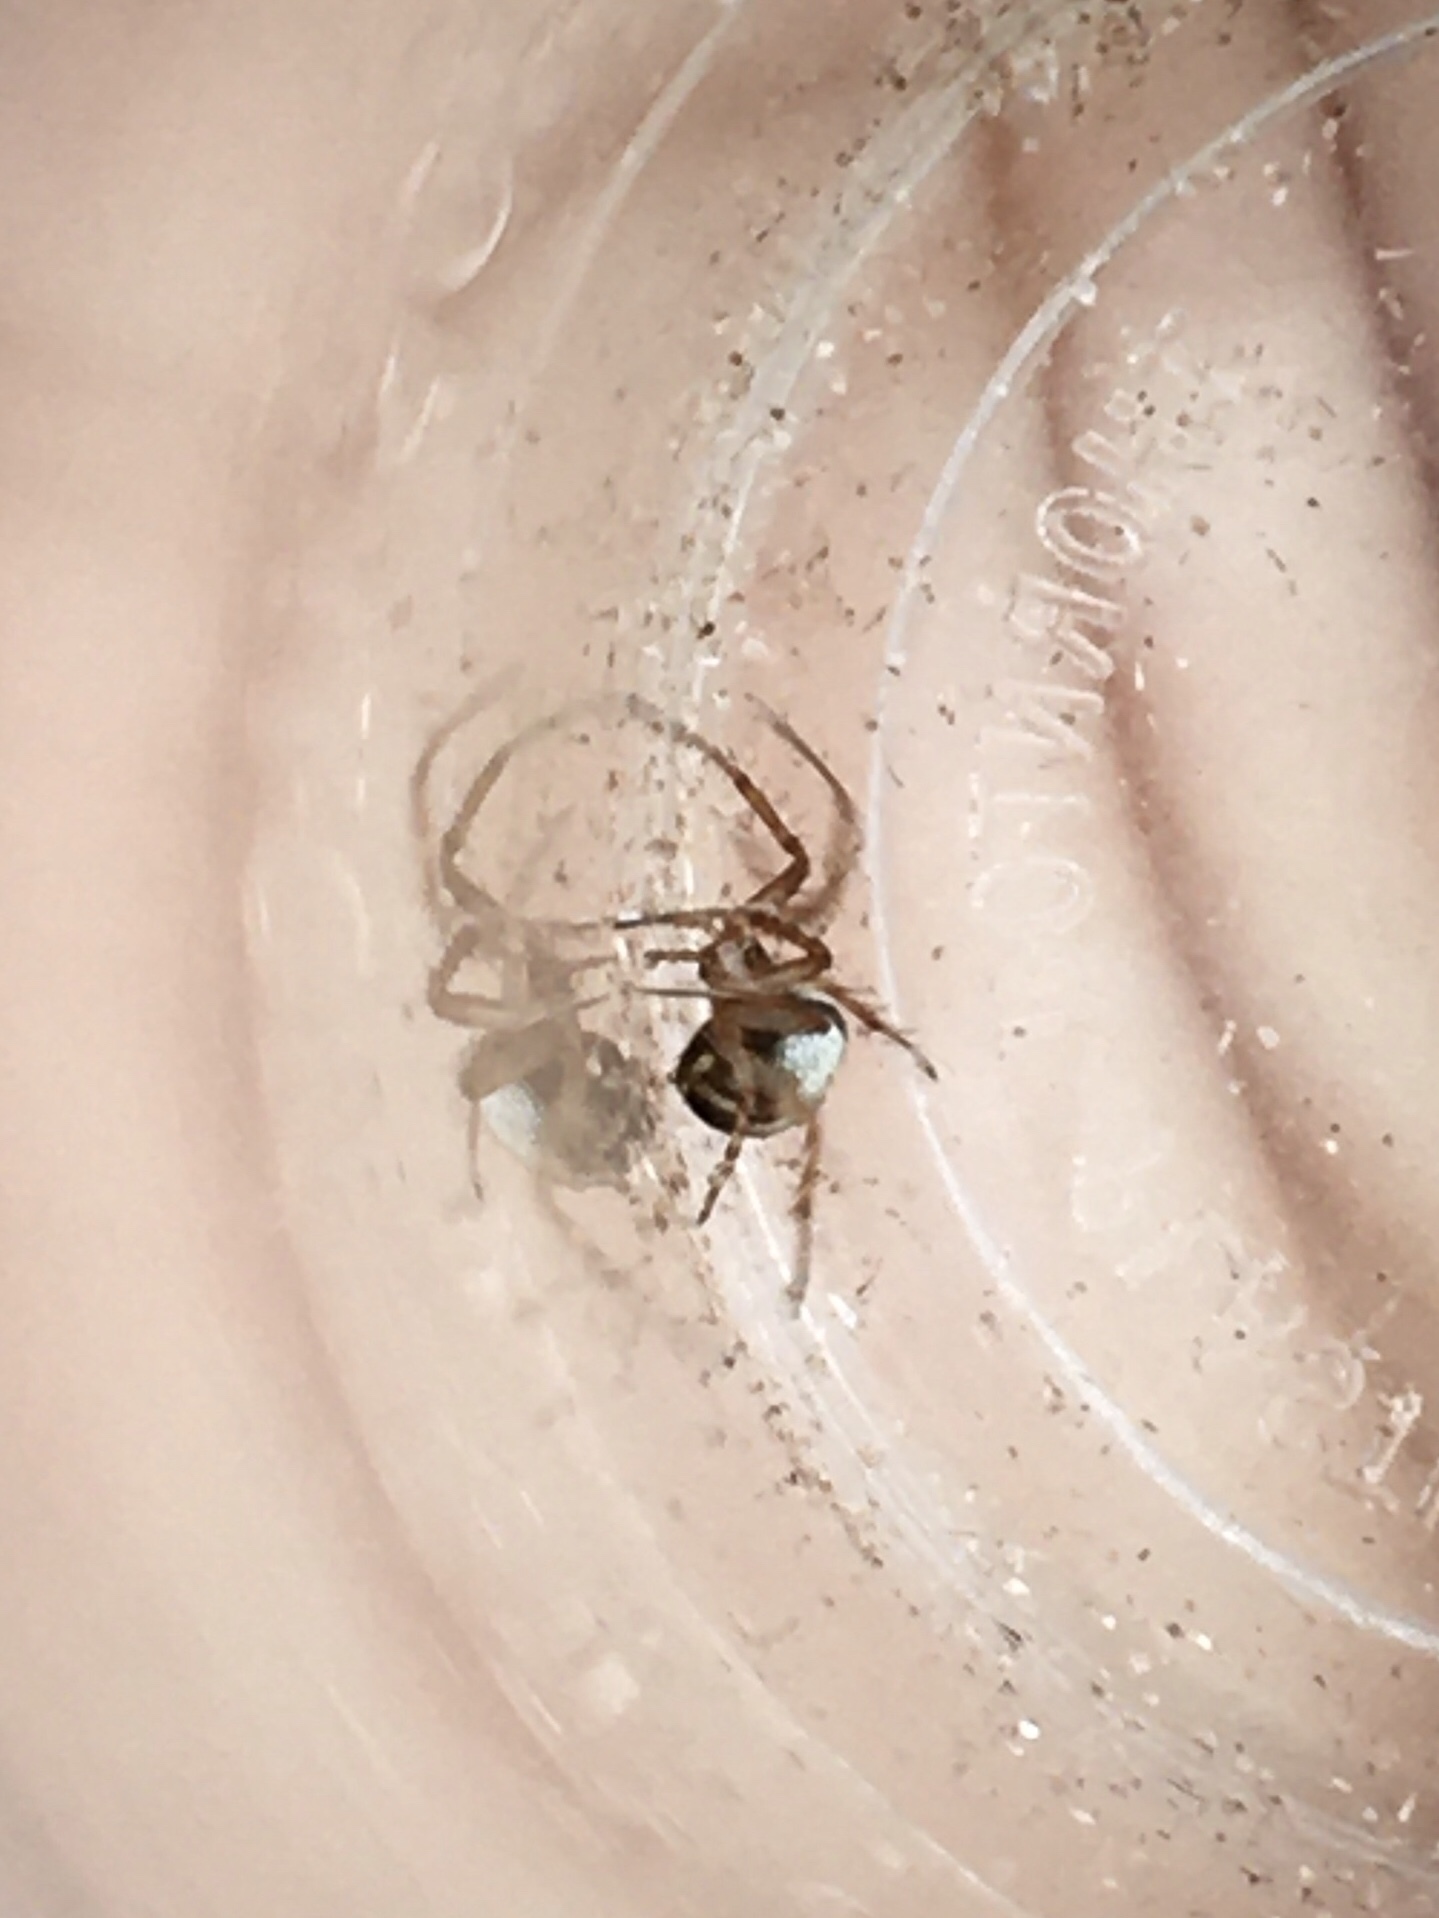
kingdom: Animalia
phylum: Arthropoda
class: Arachnida
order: Araneae
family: Araneidae
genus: Mangora
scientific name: Mangora placida
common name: Tuft-legged orbweaver
